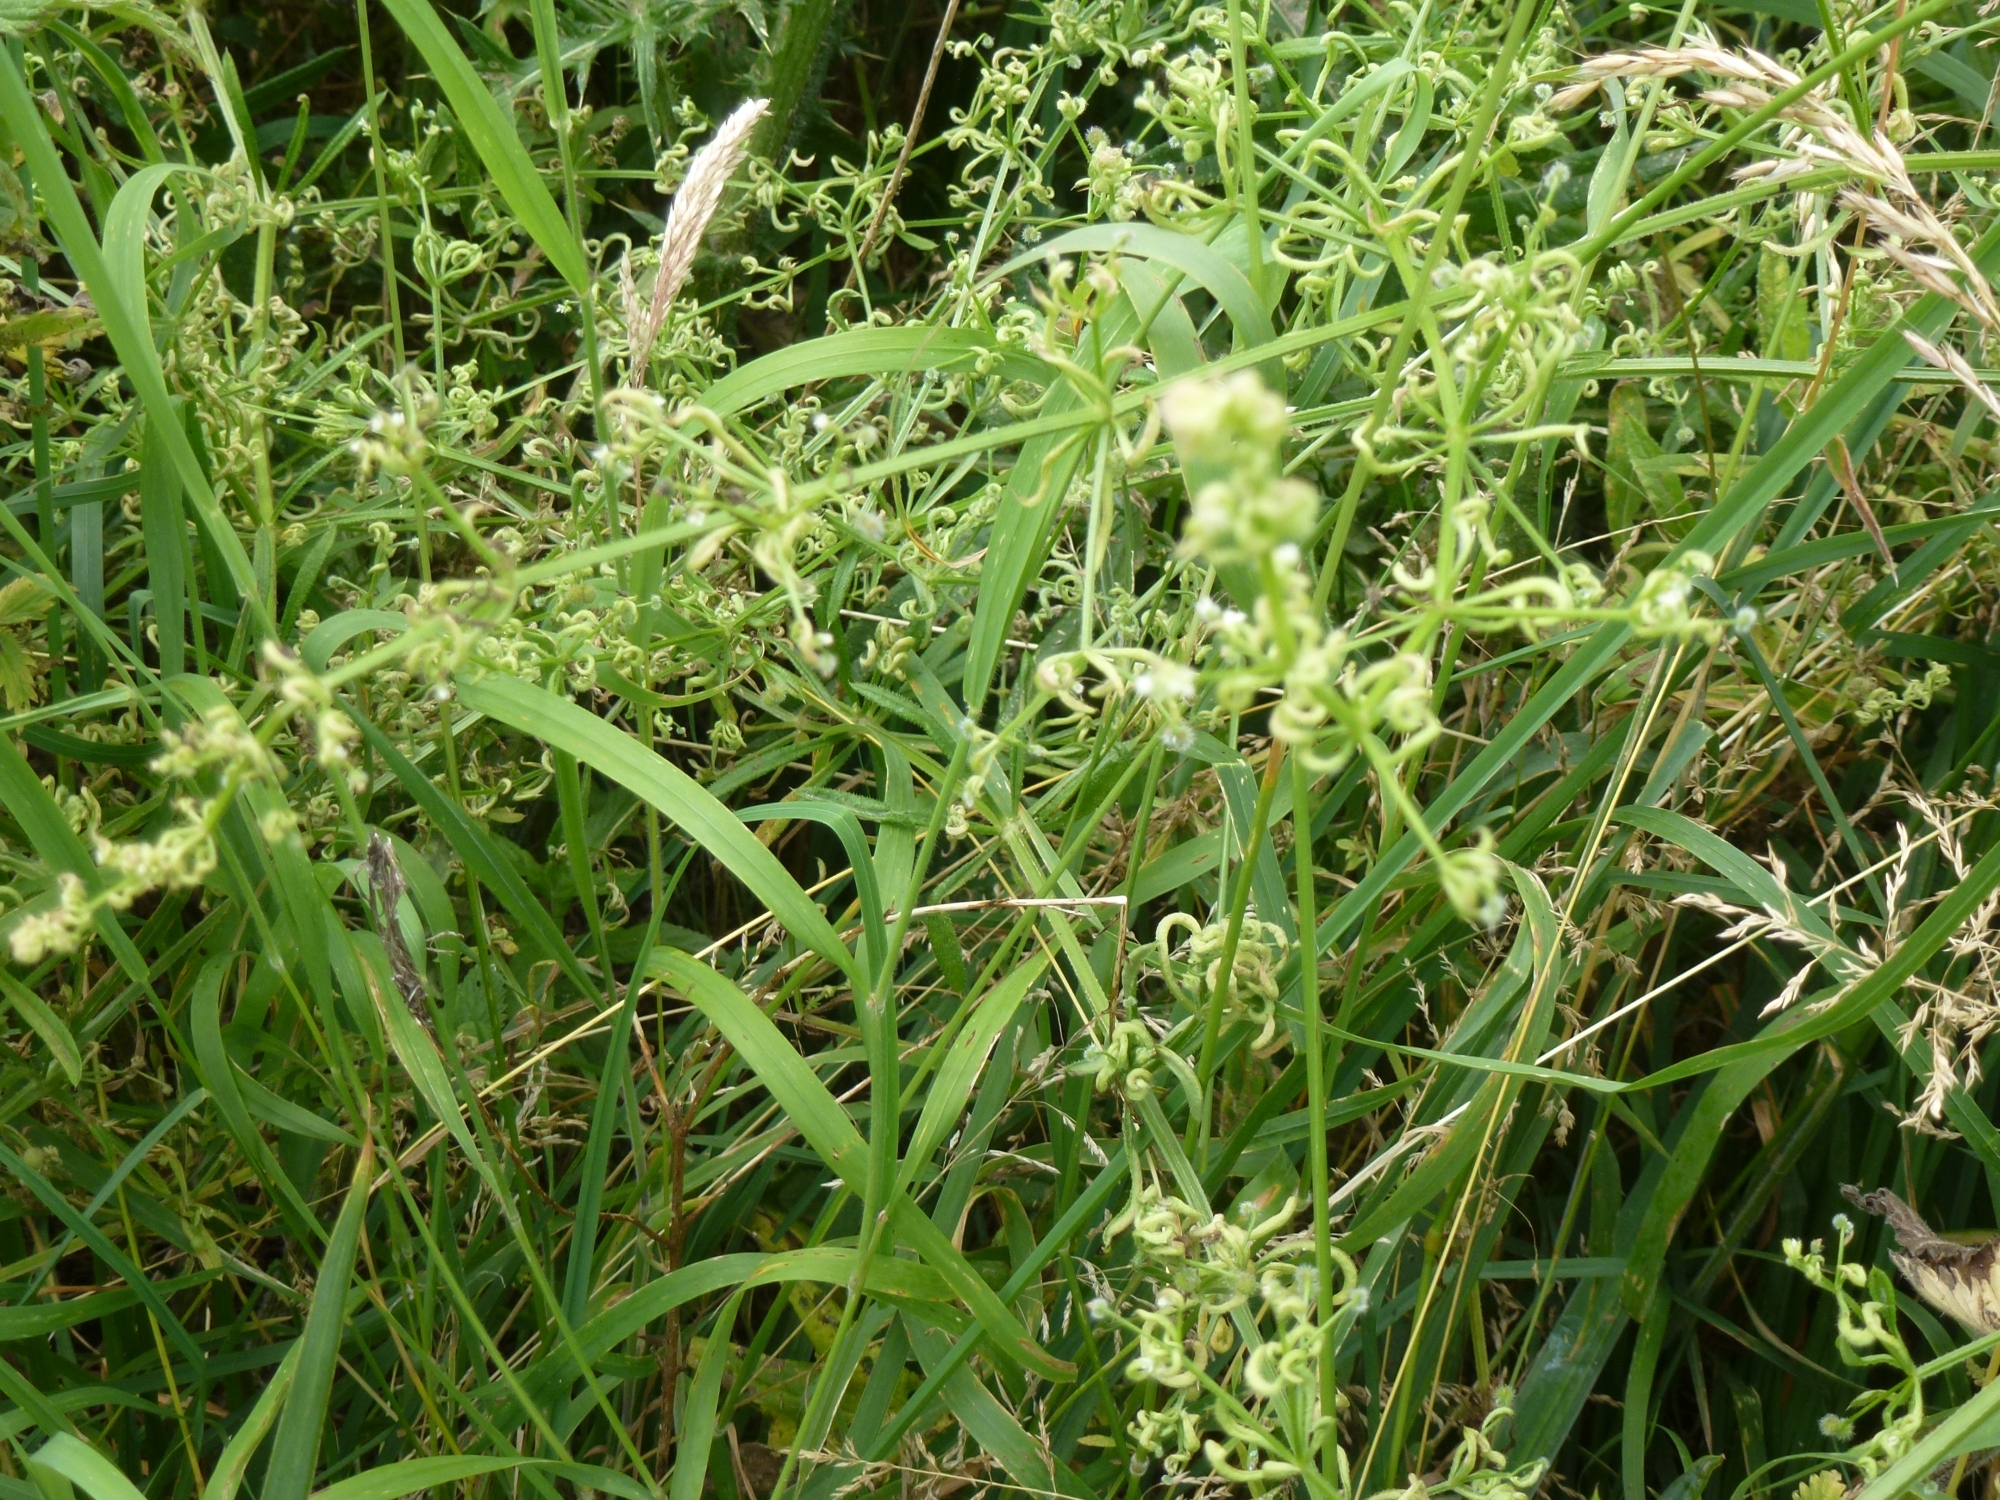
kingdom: Animalia
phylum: Arthropoda
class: Arachnida
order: Trombidiformes
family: Eriophyidae
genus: Cecidophyes
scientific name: Cecidophyes rouhollahi
